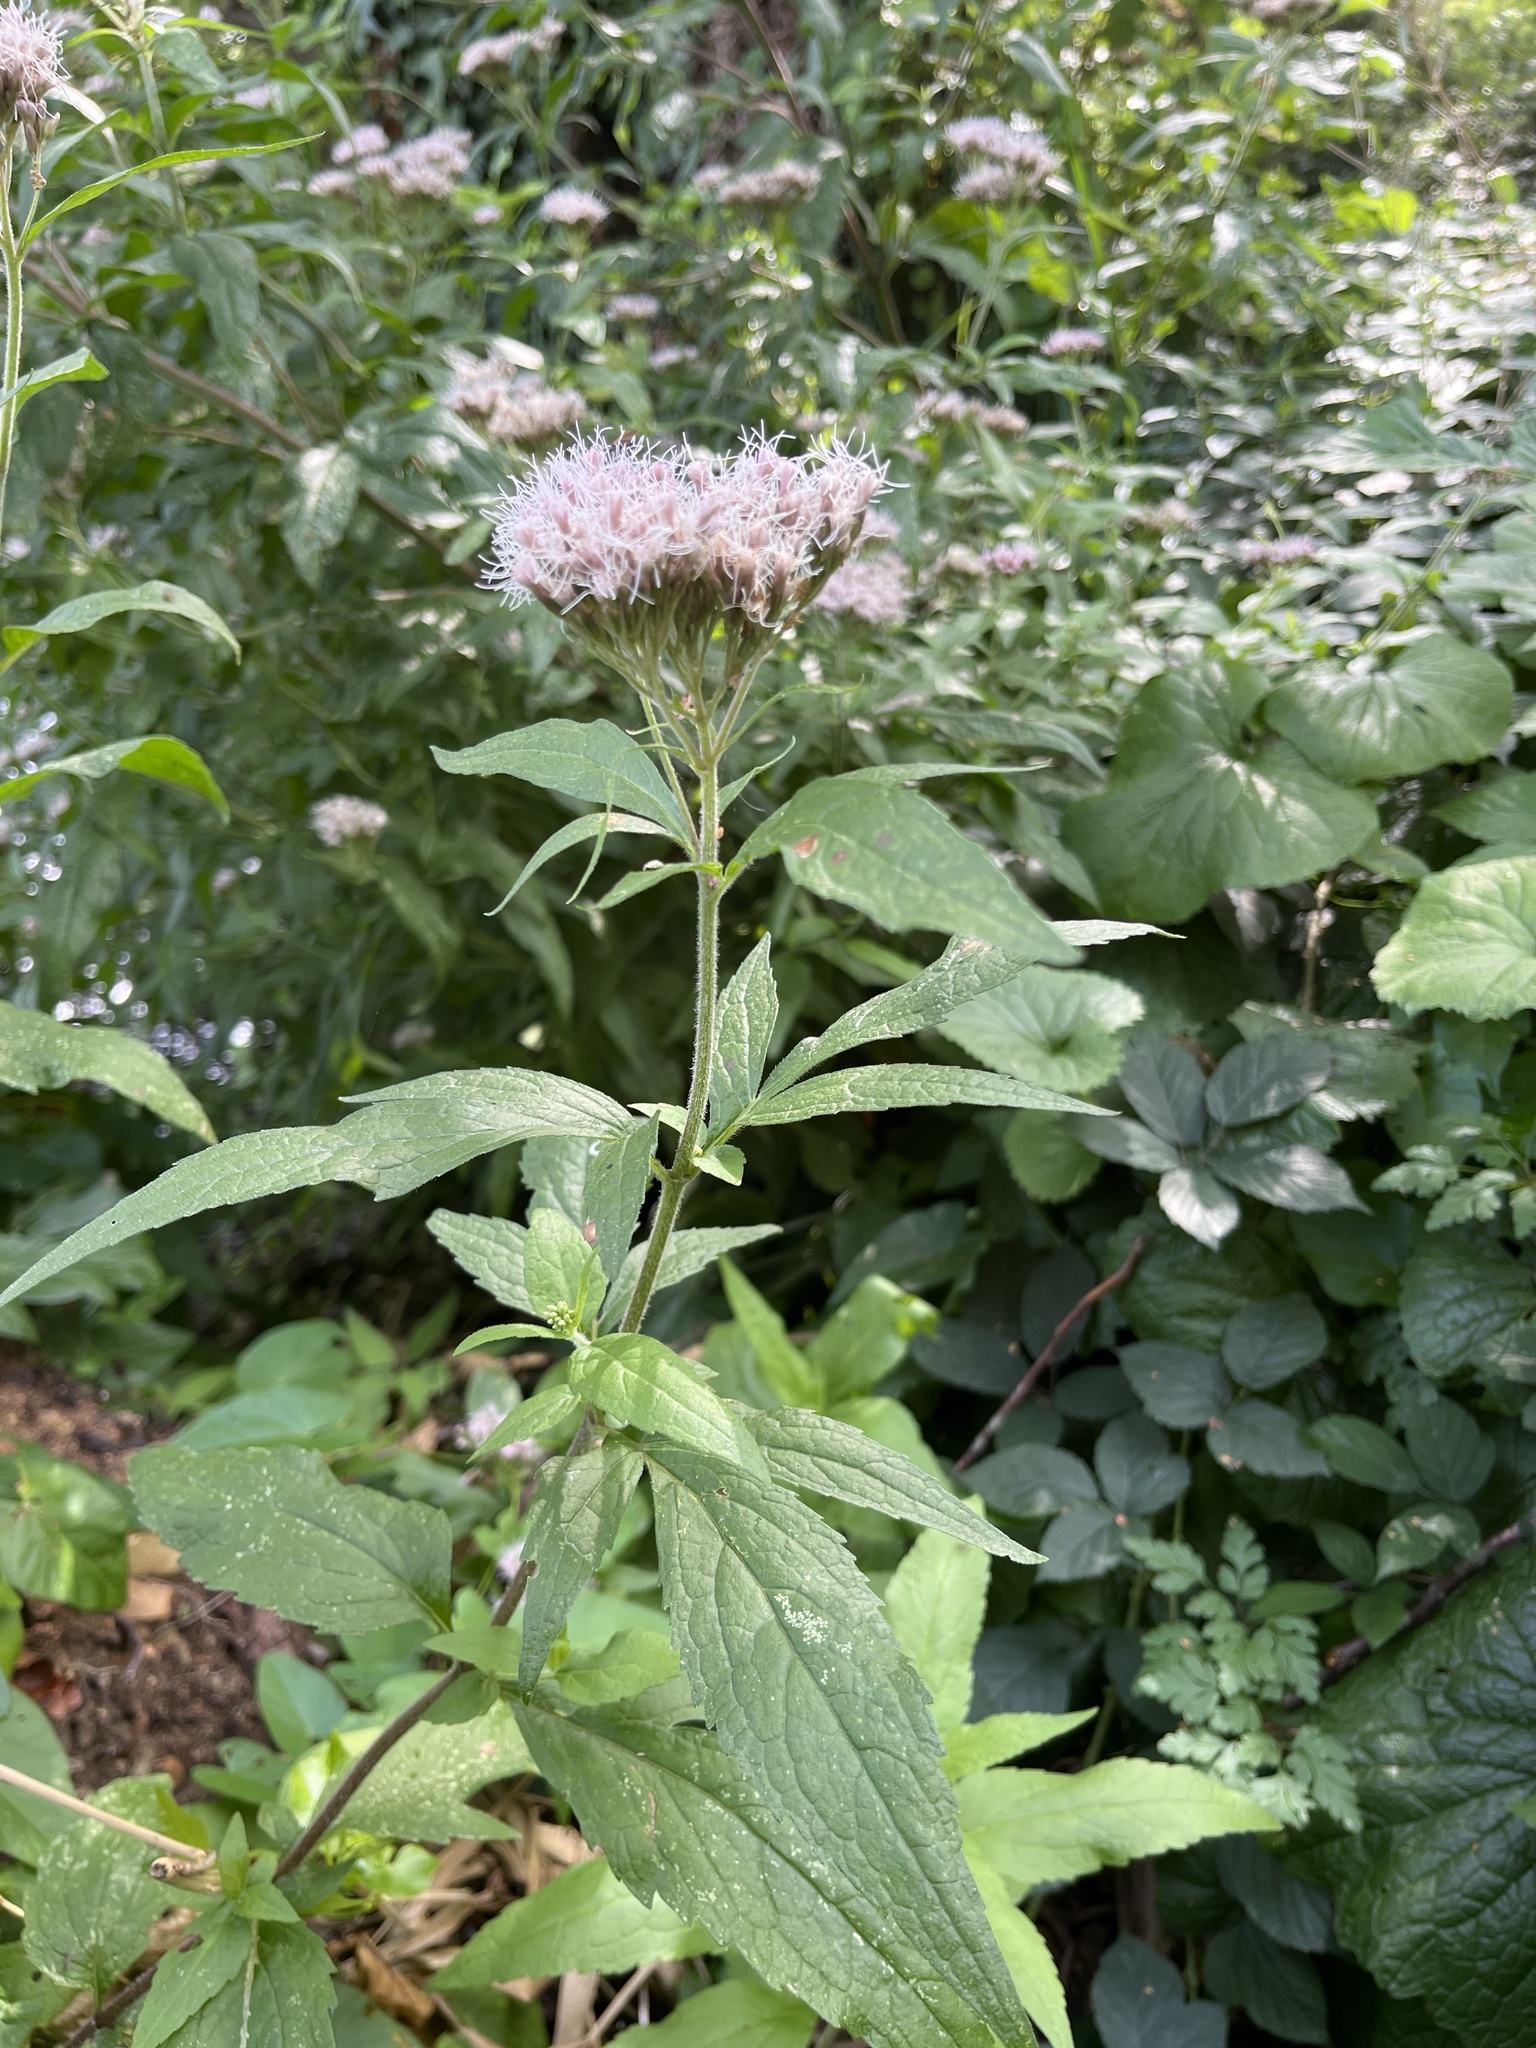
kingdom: Plantae
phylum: Tracheophyta
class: Magnoliopsida
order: Asterales
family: Asteraceae
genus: Eupatorium
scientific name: Eupatorium cannabinum
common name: Hemp-agrimony
